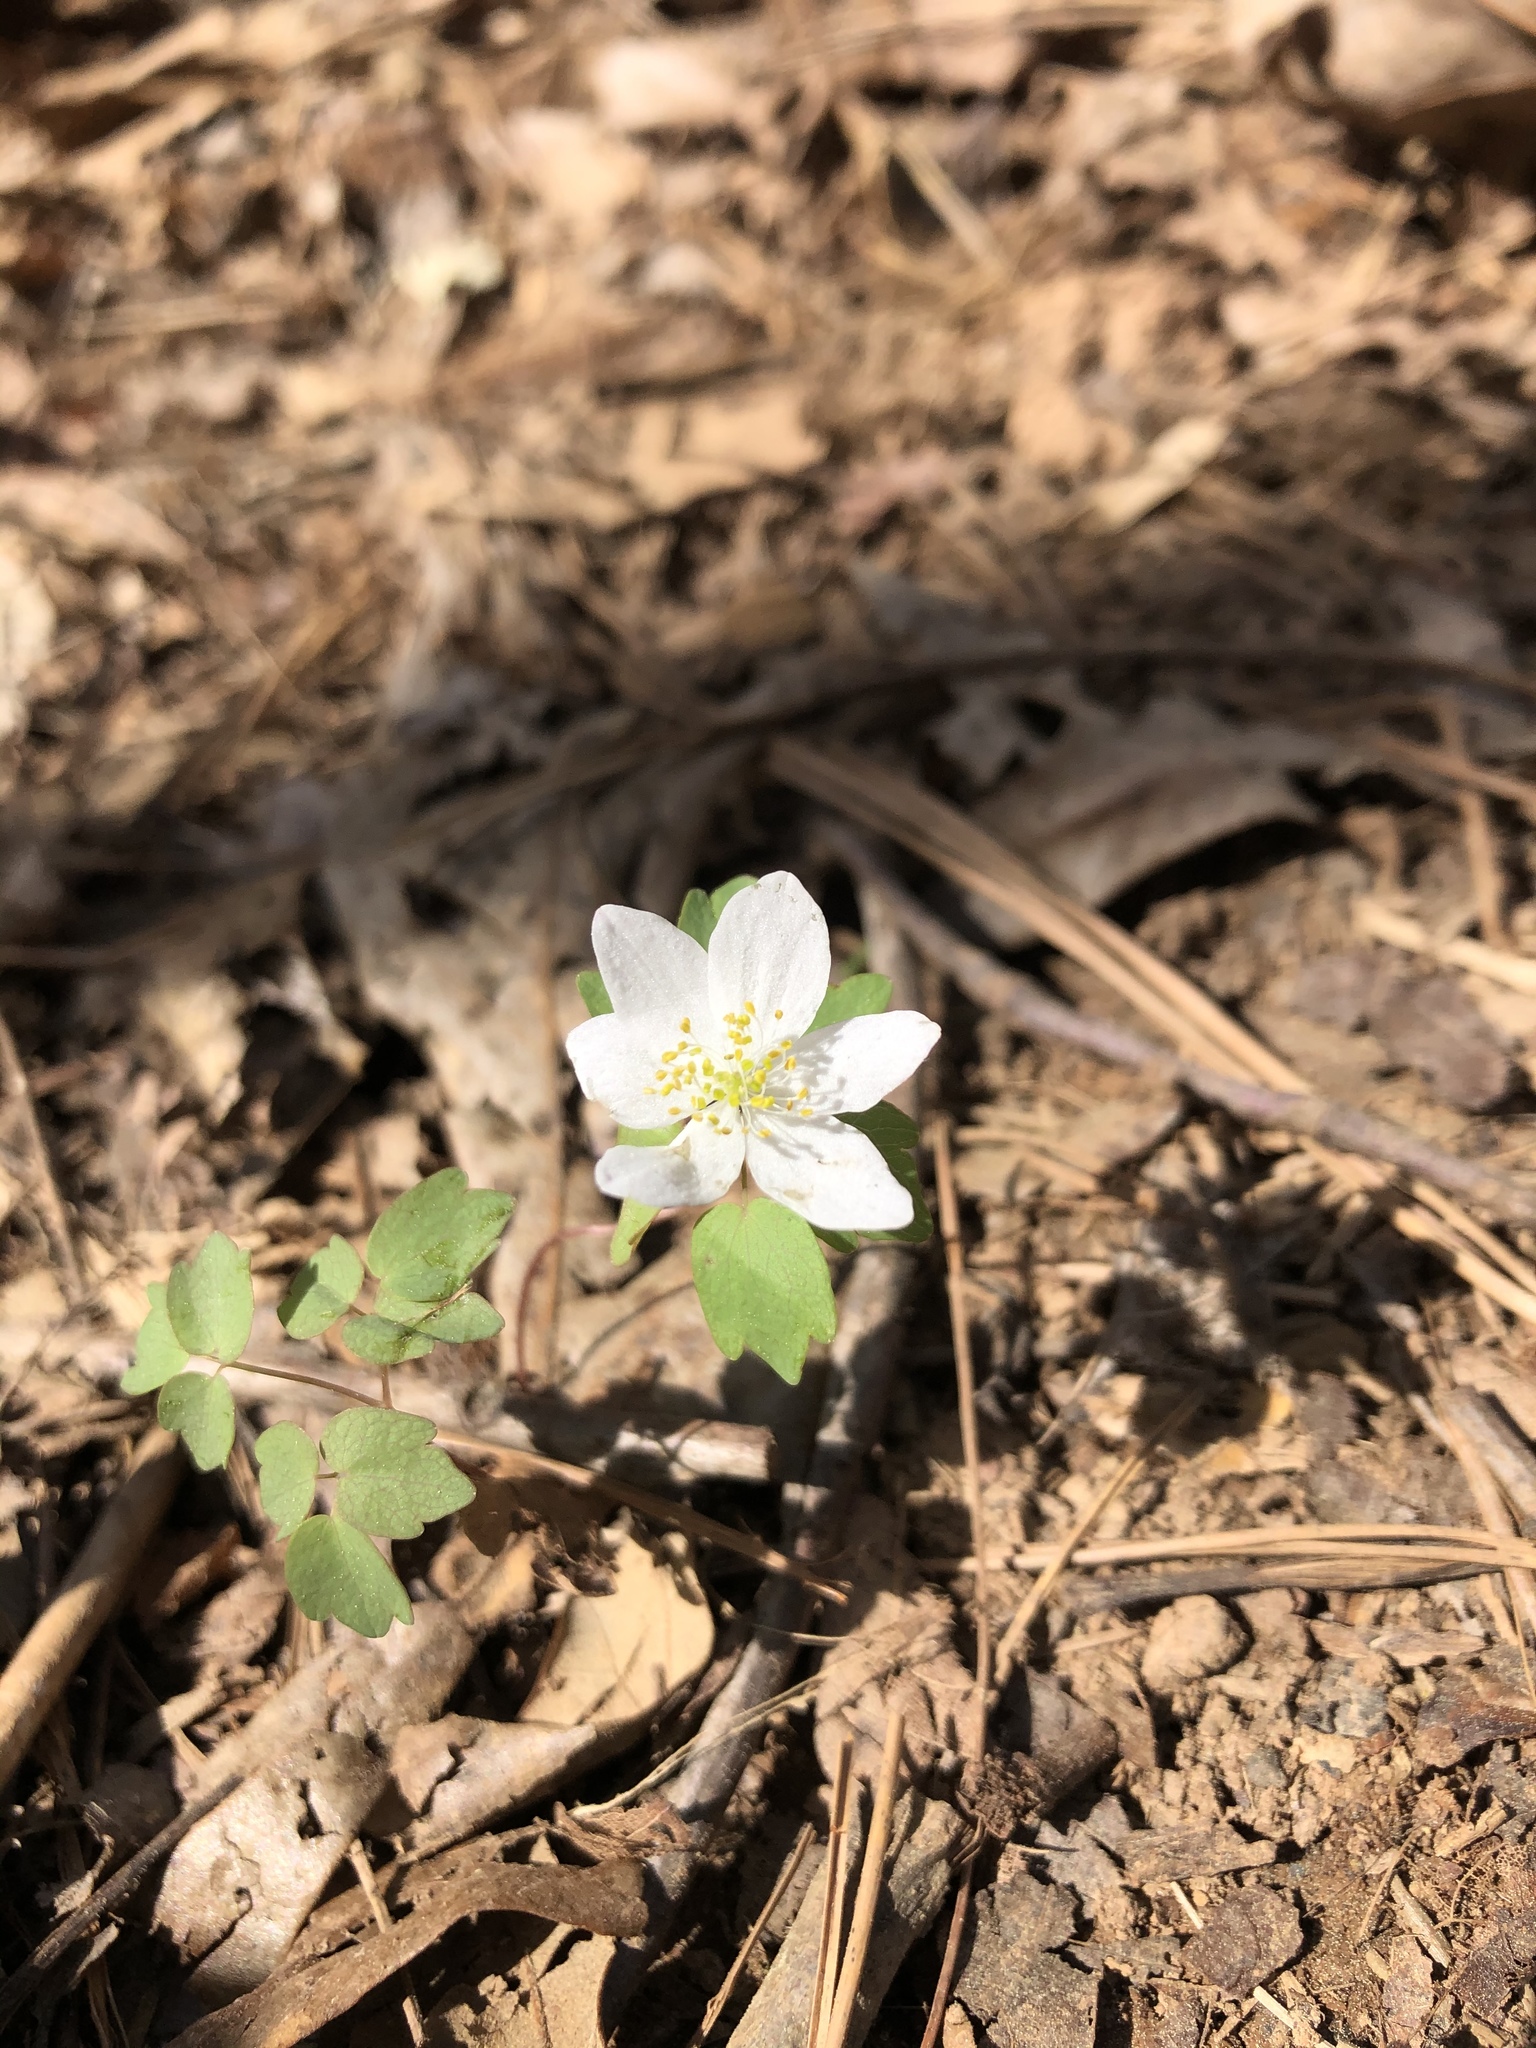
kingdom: Plantae
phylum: Tracheophyta
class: Magnoliopsida
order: Ranunculales
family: Ranunculaceae
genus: Thalictrum
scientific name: Thalictrum thalictroides
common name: Rue-anemone
